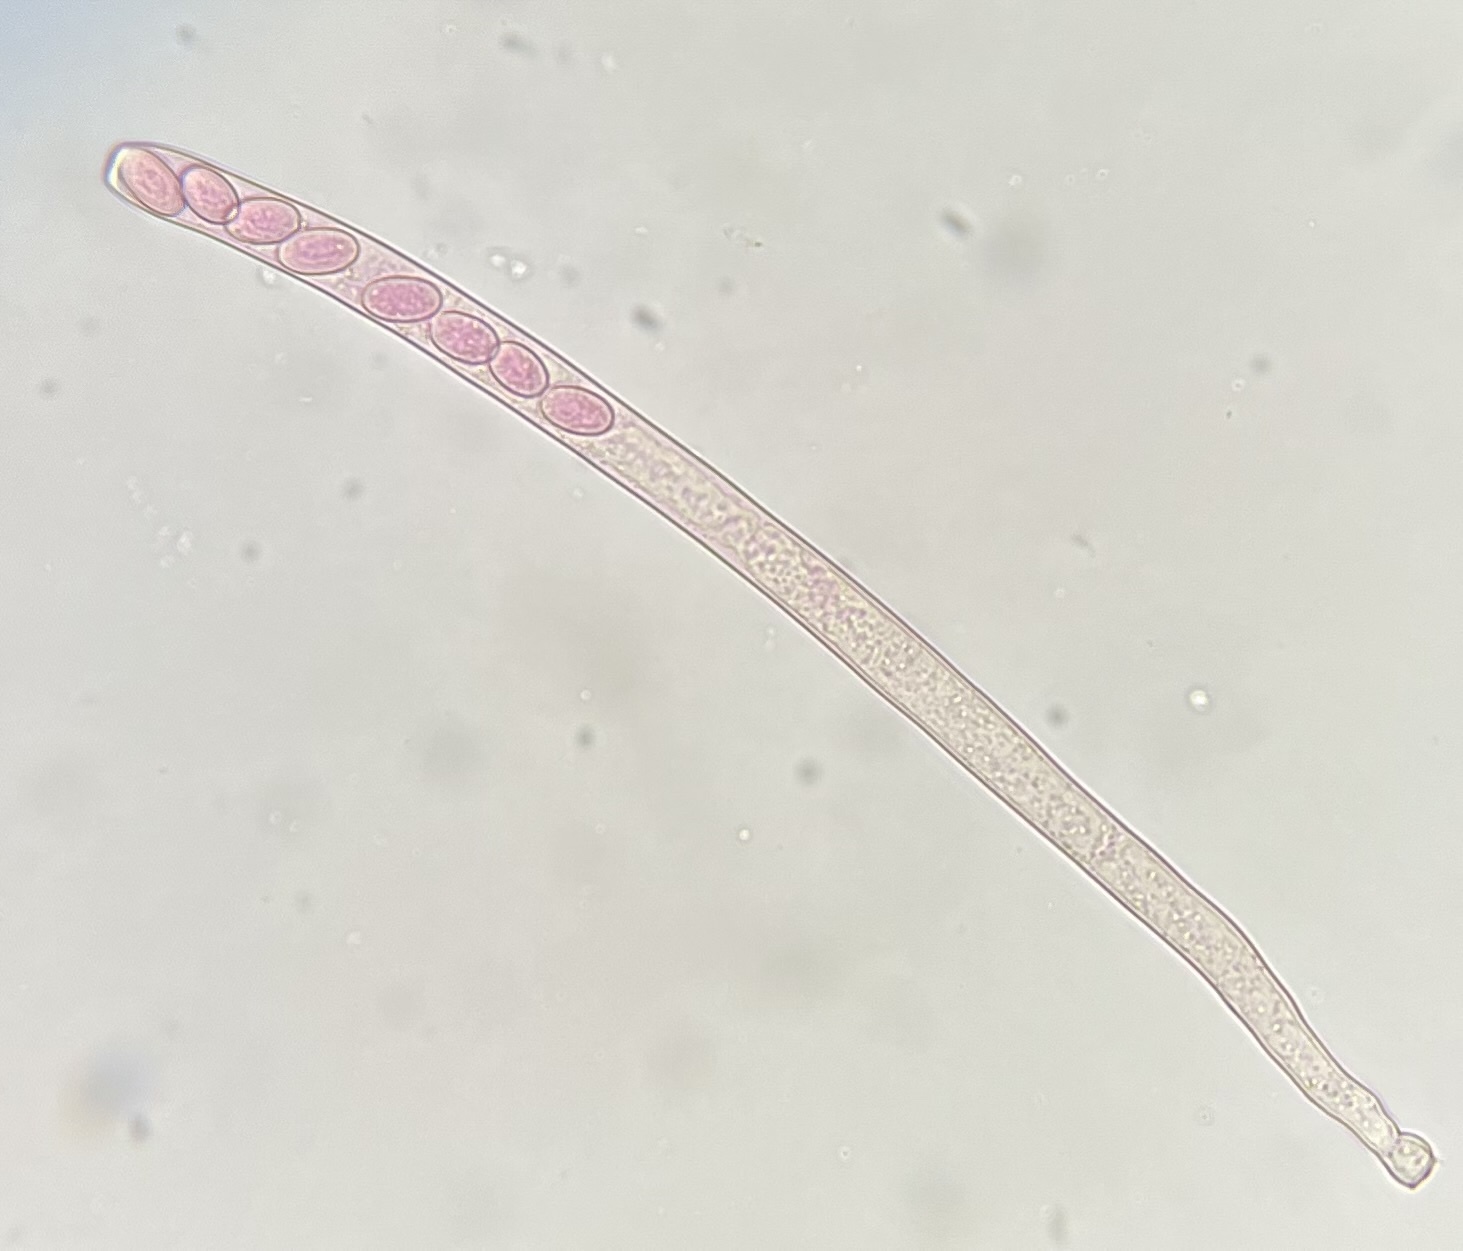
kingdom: Fungi
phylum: Ascomycota
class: Pezizomycetes
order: Pezizales
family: Pezizaceae
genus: Peziza
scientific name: Peziza varia
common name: Layered cup
